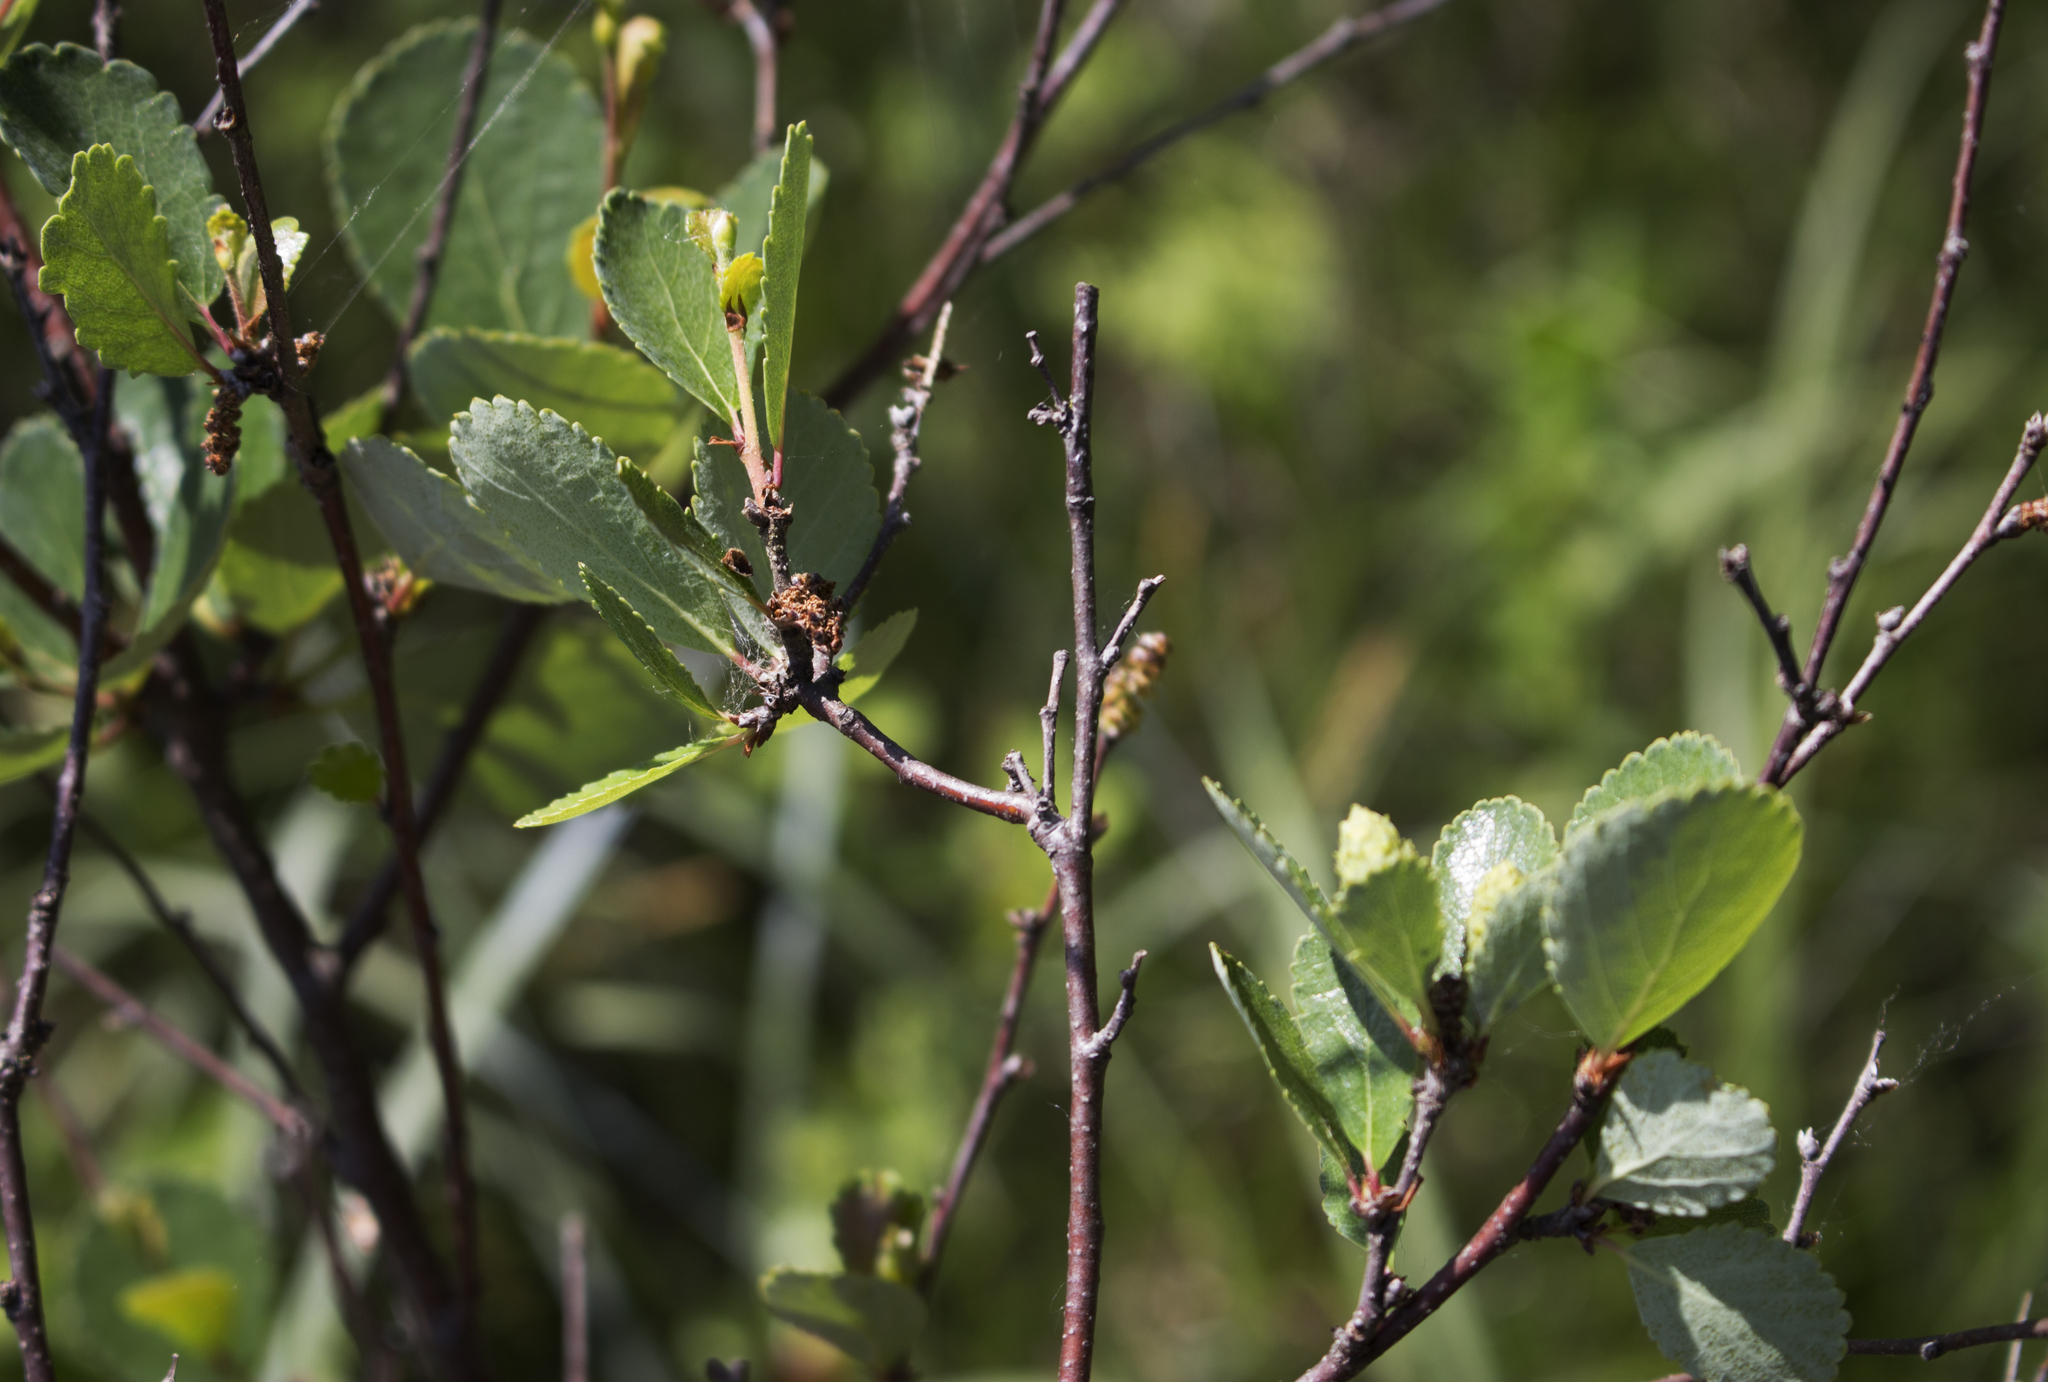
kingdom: Plantae
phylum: Tracheophyta
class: Magnoliopsida
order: Fagales
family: Betulaceae
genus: Betula
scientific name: Betula pumila
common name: Bog birch
